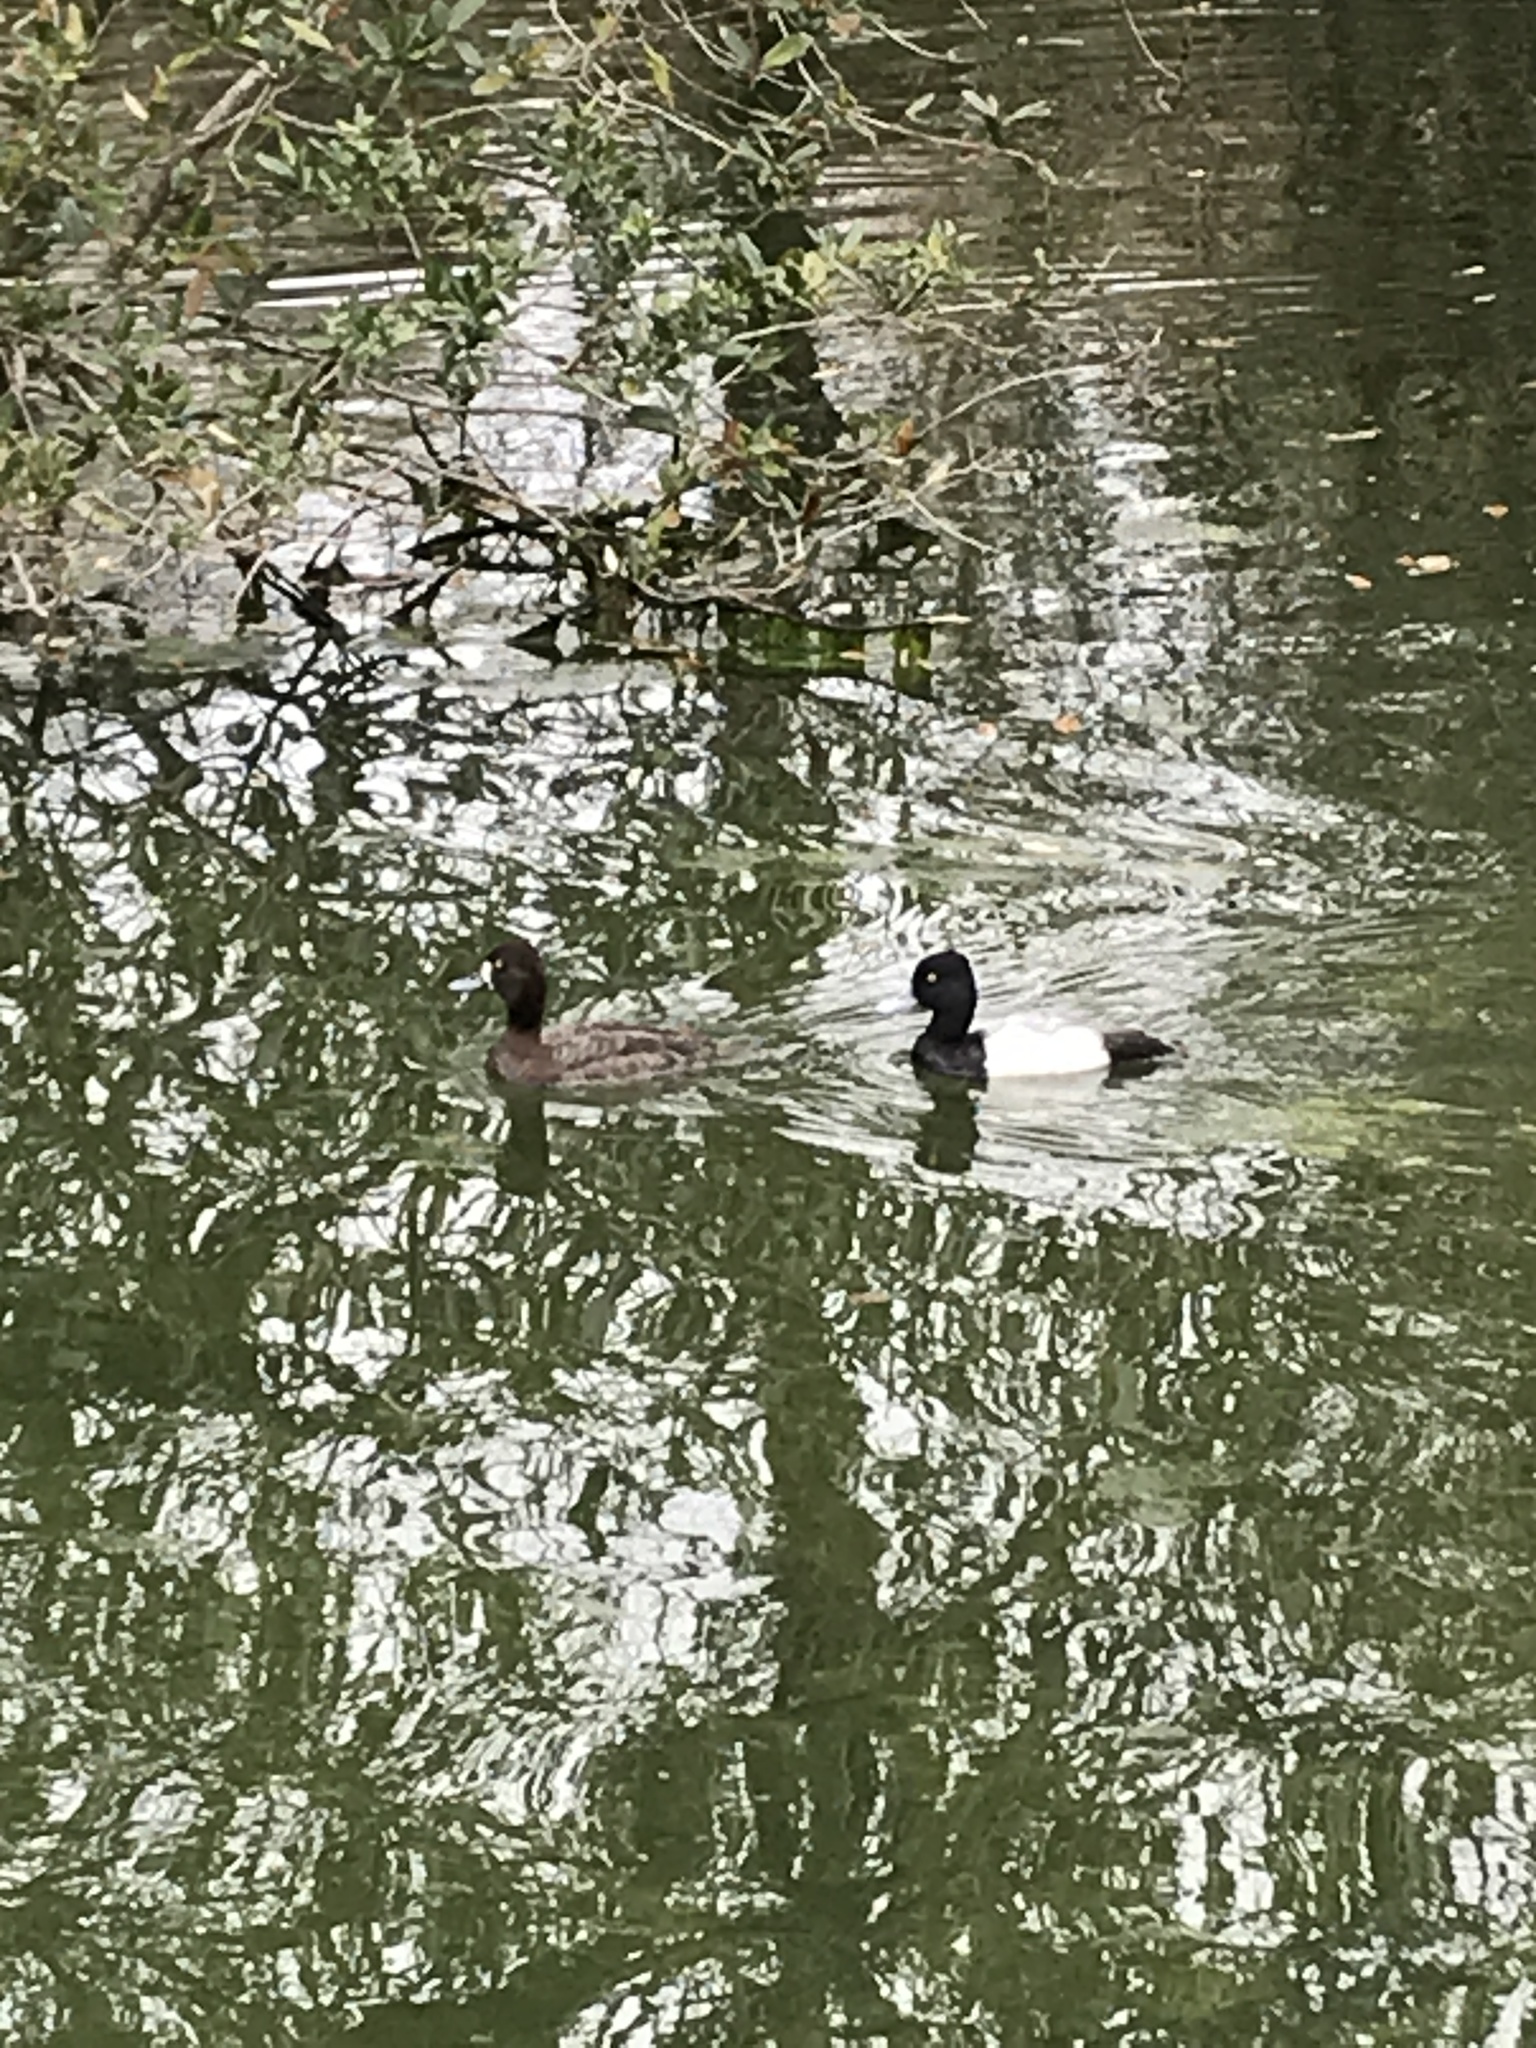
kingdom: Animalia
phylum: Chordata
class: Aves
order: Anseriformes
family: Anatidae
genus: Aythya
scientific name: Aythya affinis
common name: Lesser scaup
